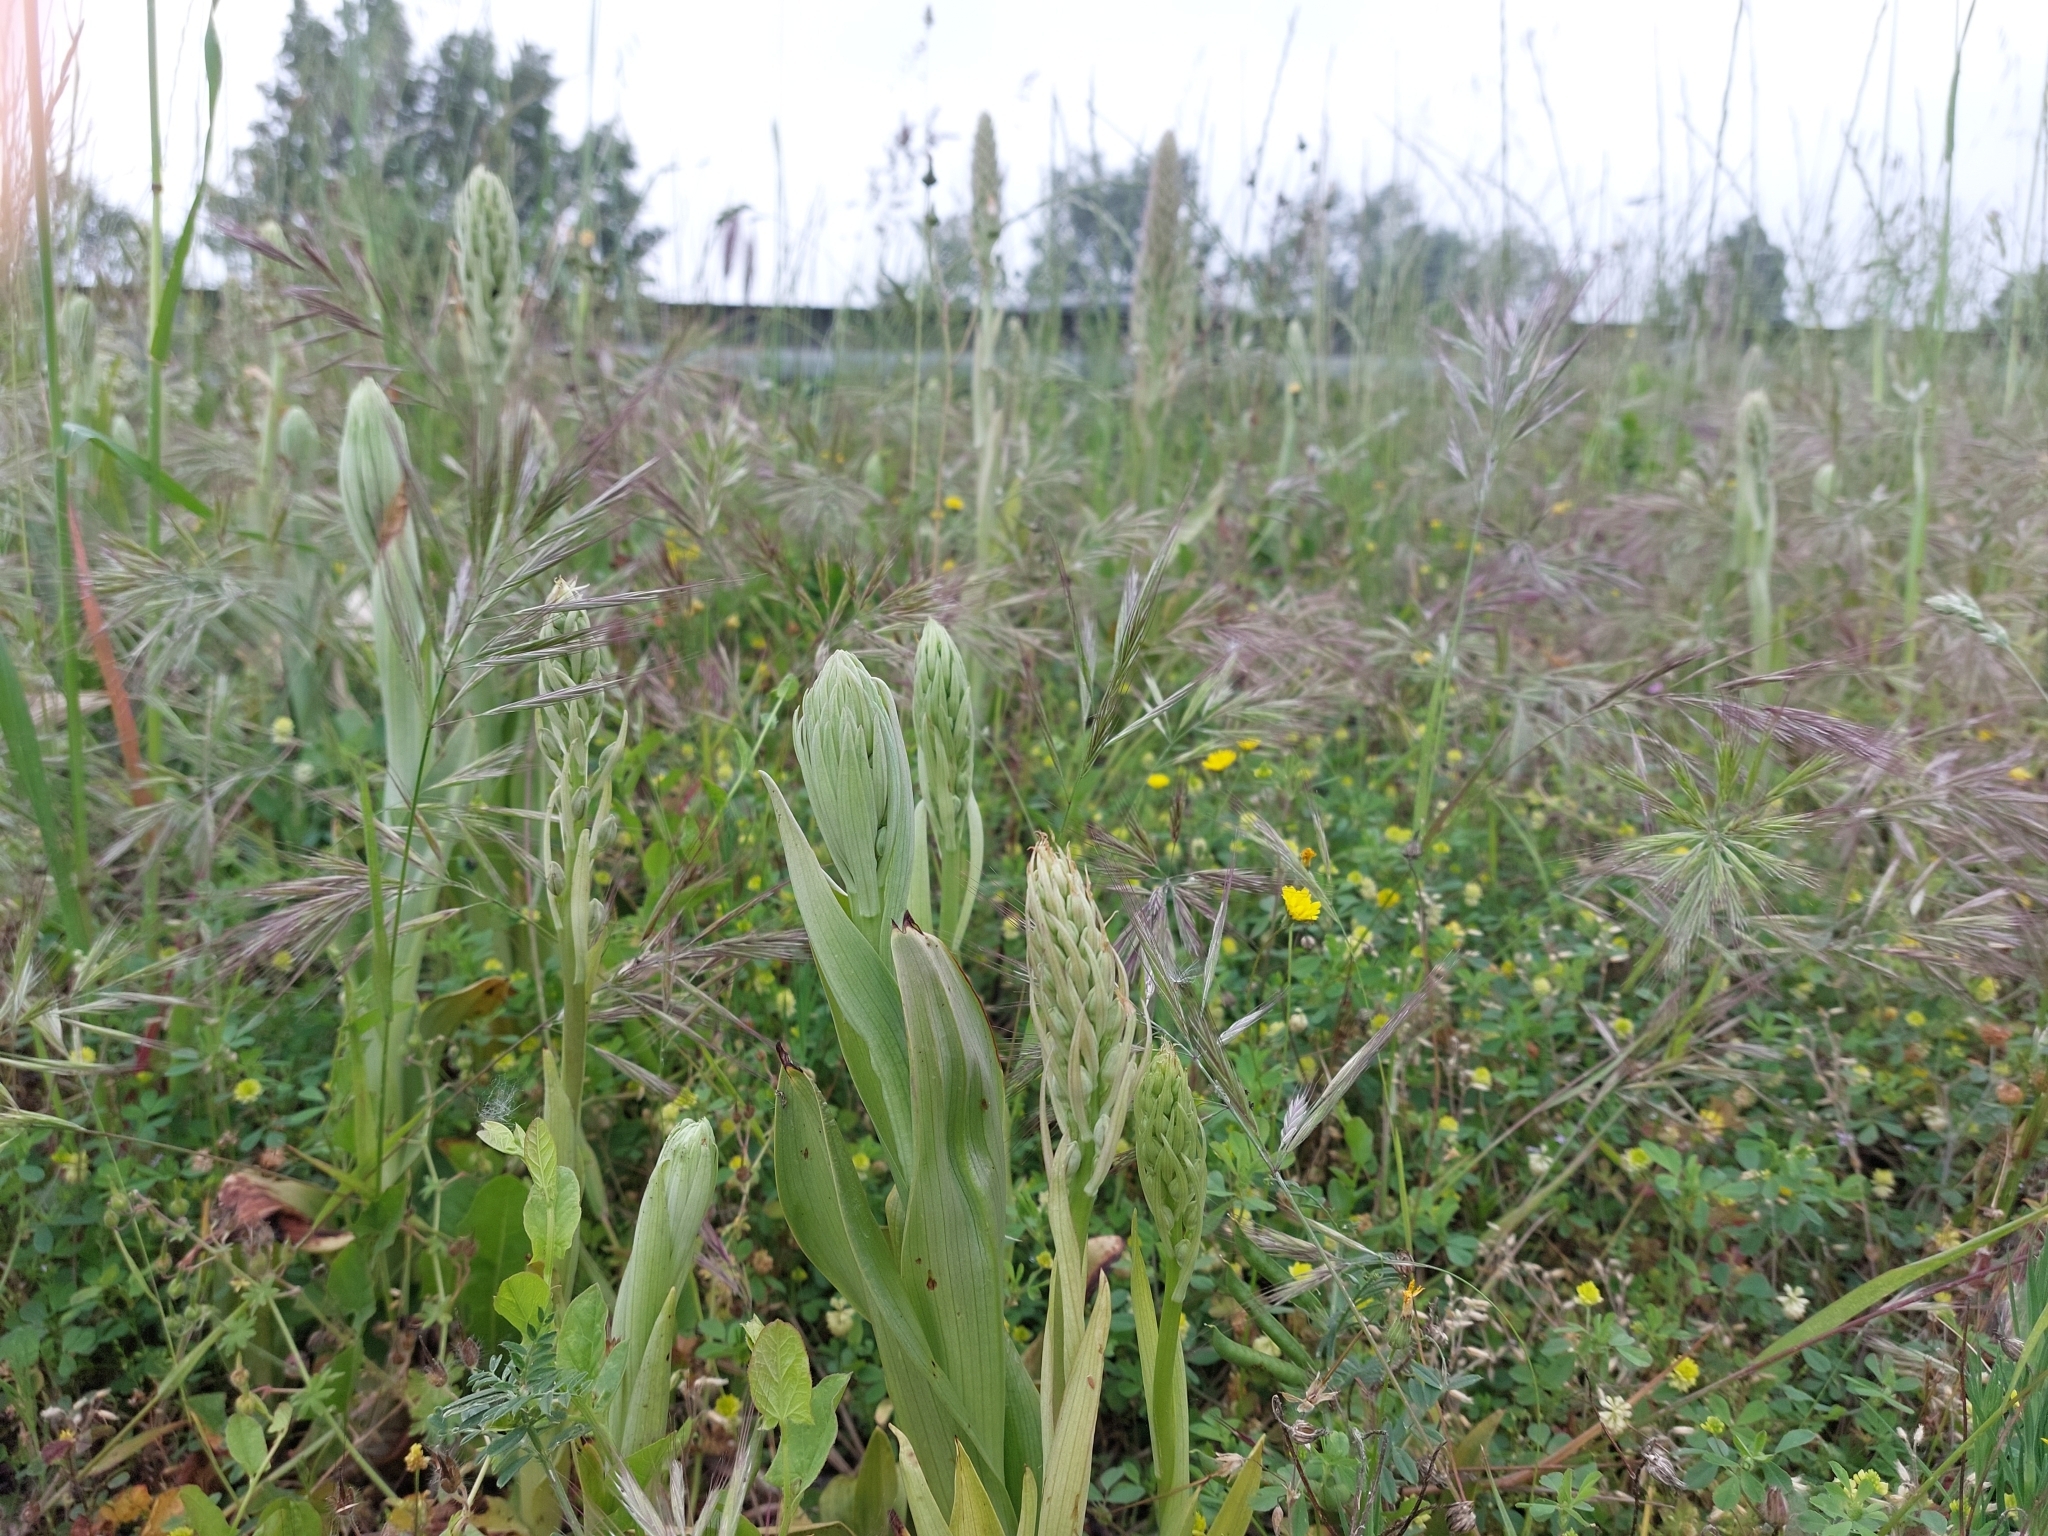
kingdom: Plantae
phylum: Tracheophyta
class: Liliopsida
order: Asparagales
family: Orchidaceae
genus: Himantoglossum
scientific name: Himantoglossum hircinum
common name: Lizard orchid
